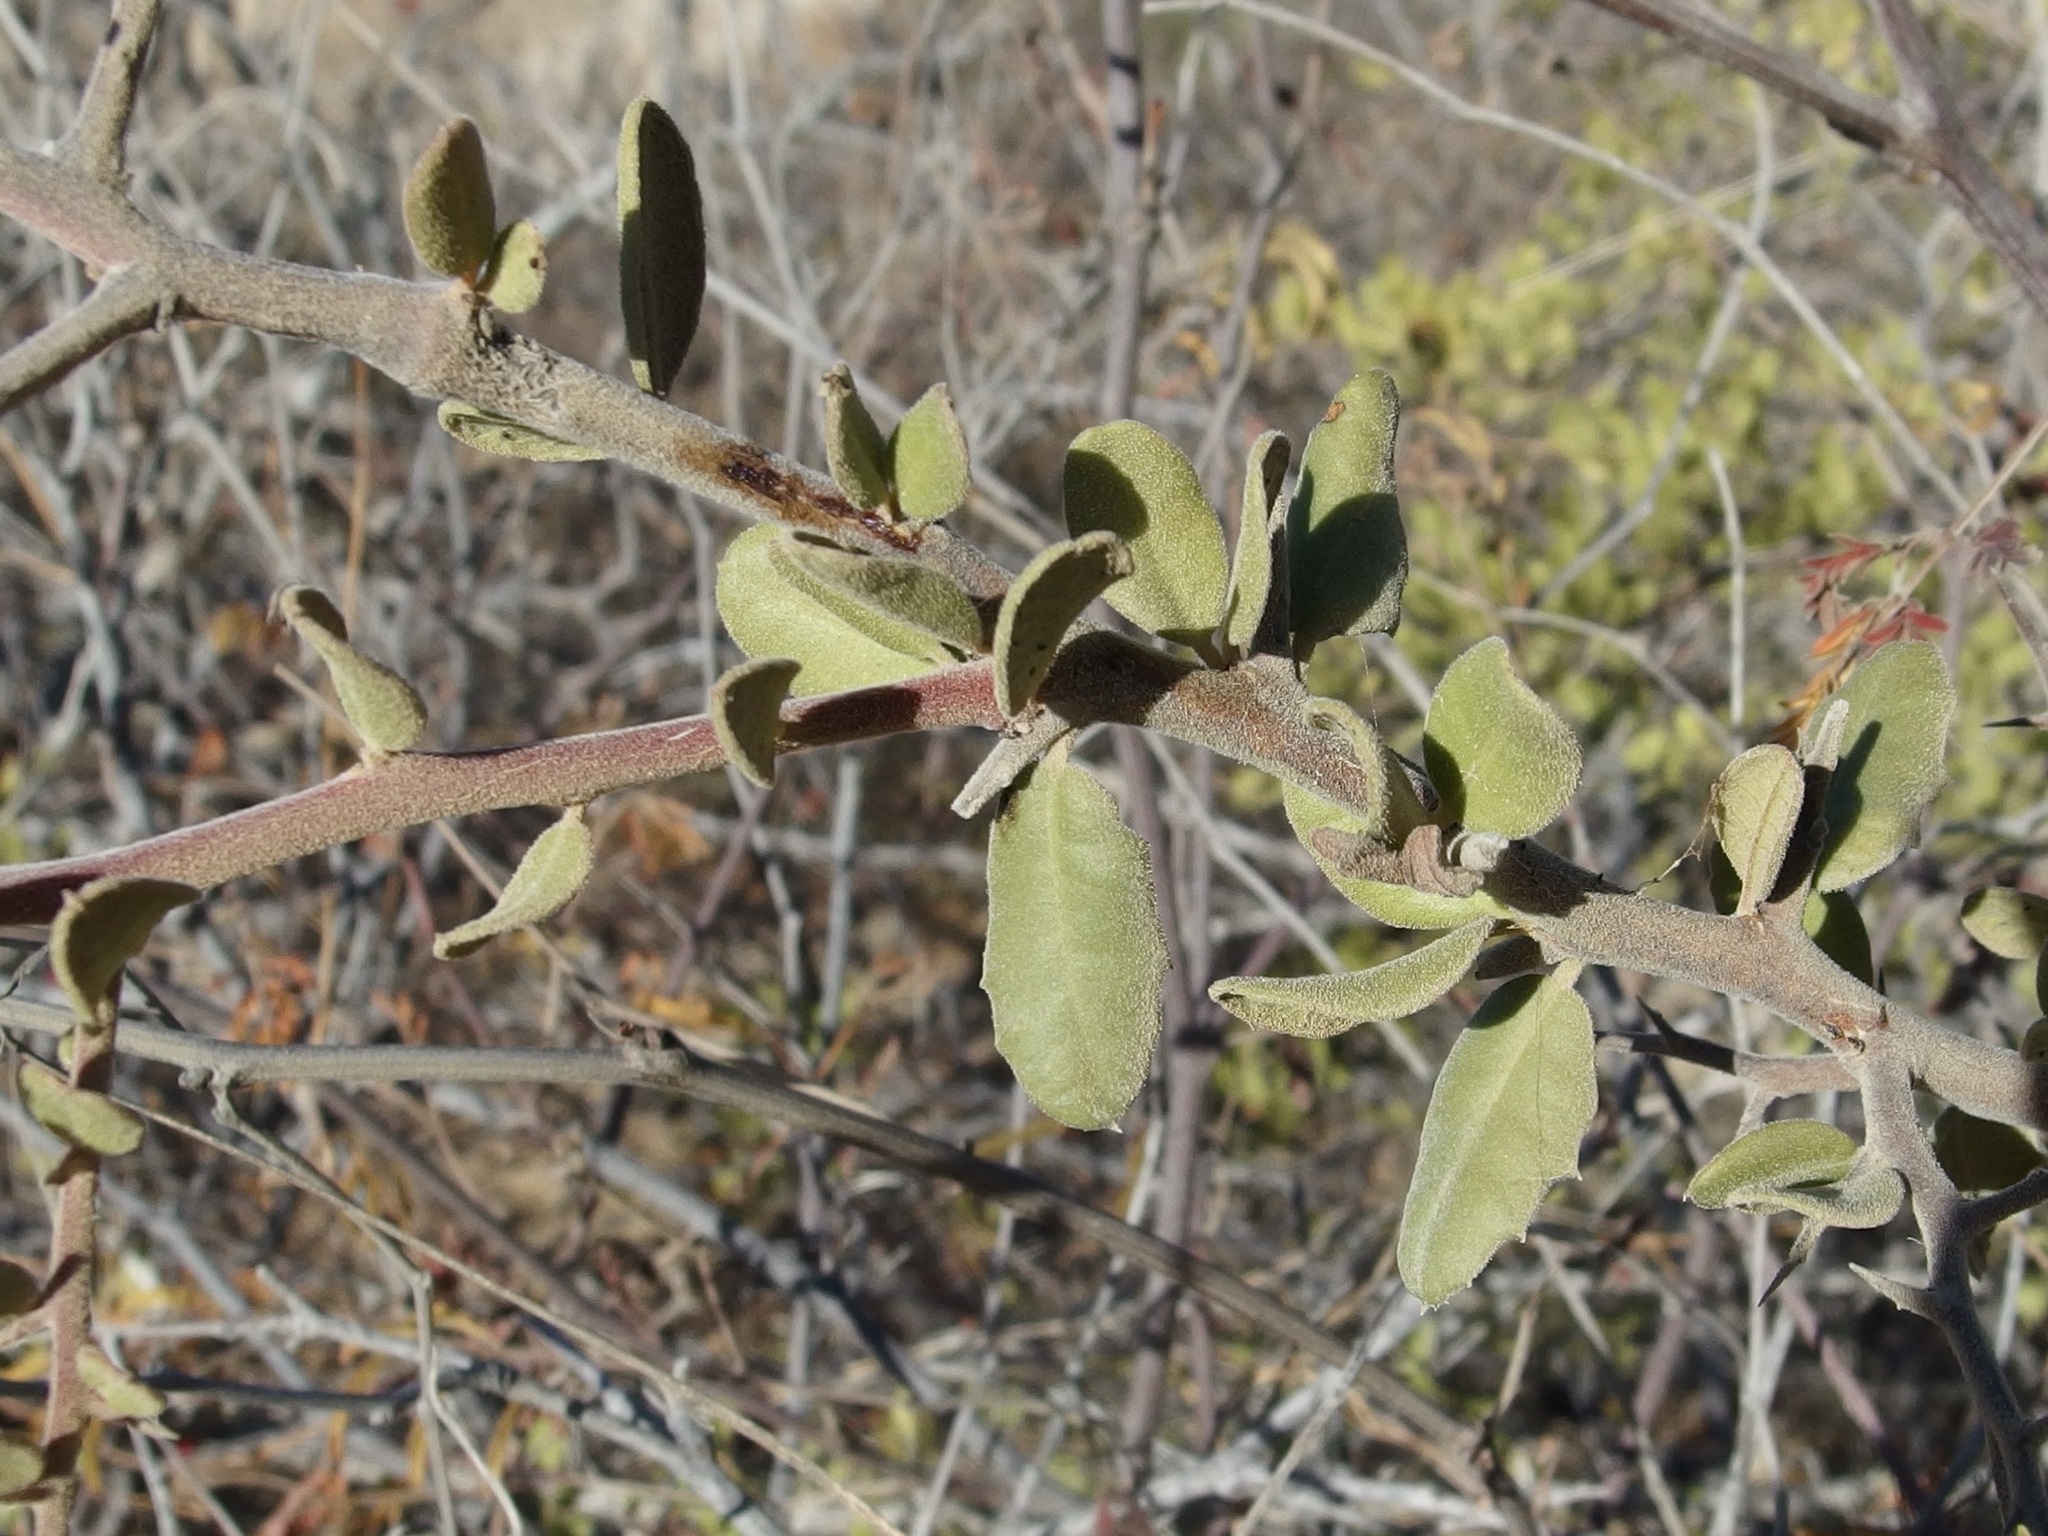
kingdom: Plantae
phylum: Tracheophyta
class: Magnoliopsida
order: Sapindales
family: Simaroubaceae
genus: Castela
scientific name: Castela peninsularis
